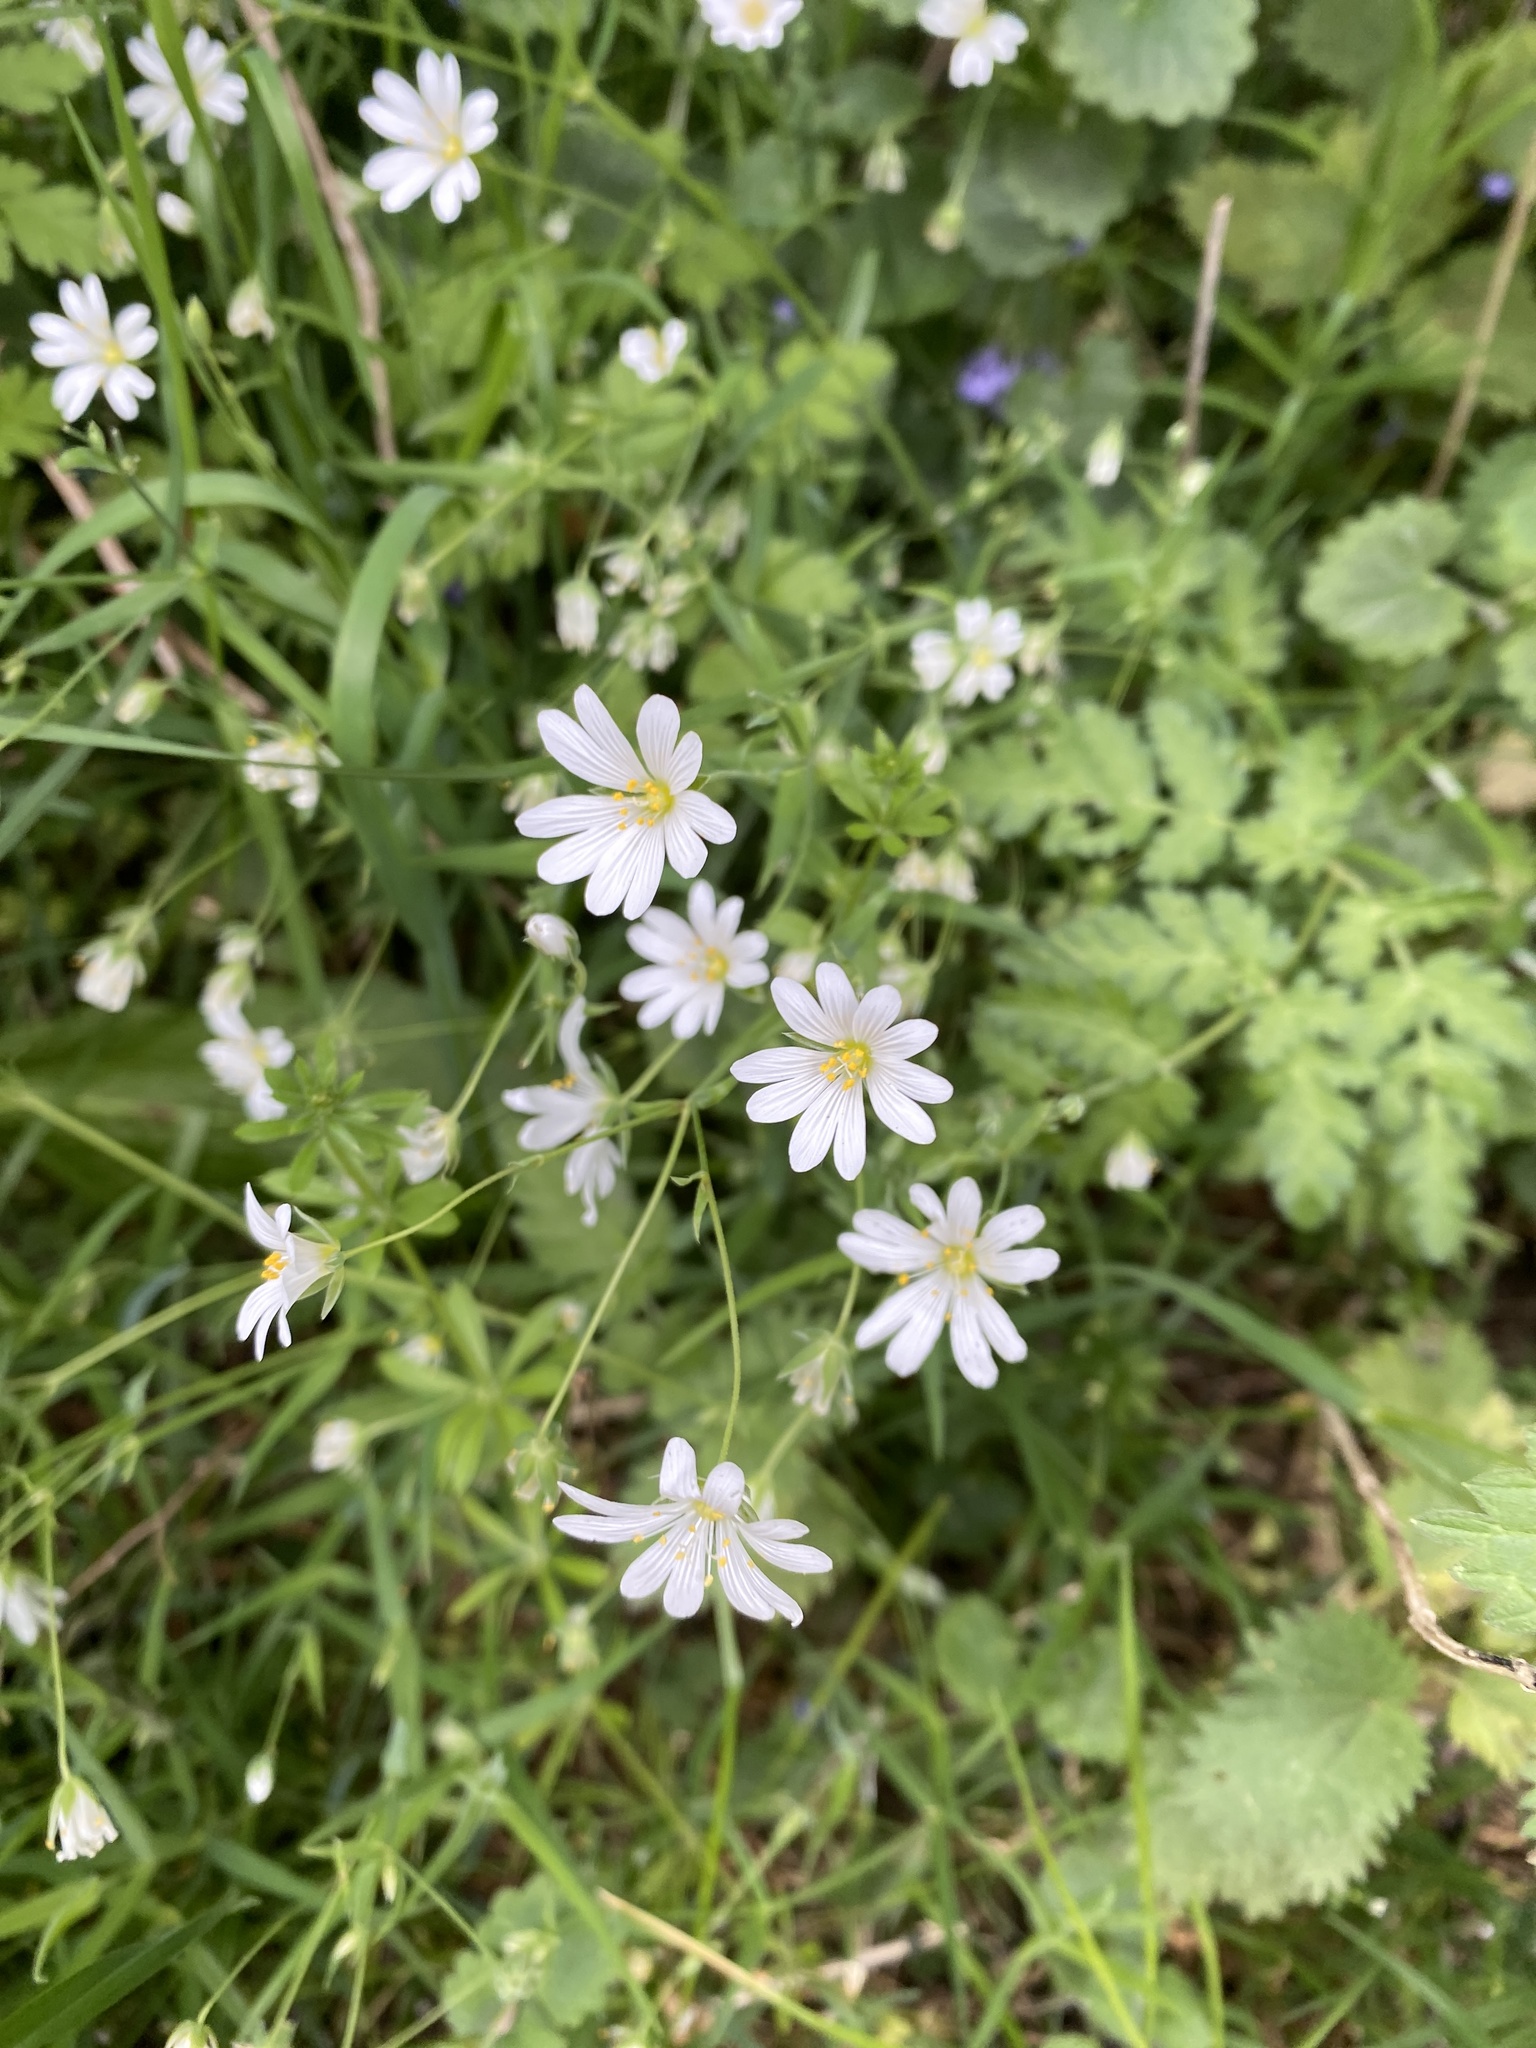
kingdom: Plantae
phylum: Tracheophyta
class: Magnoliopsida
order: Caryophyllales
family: Caryophyllaceae
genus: Rabelera
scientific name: Rabelera holostea
